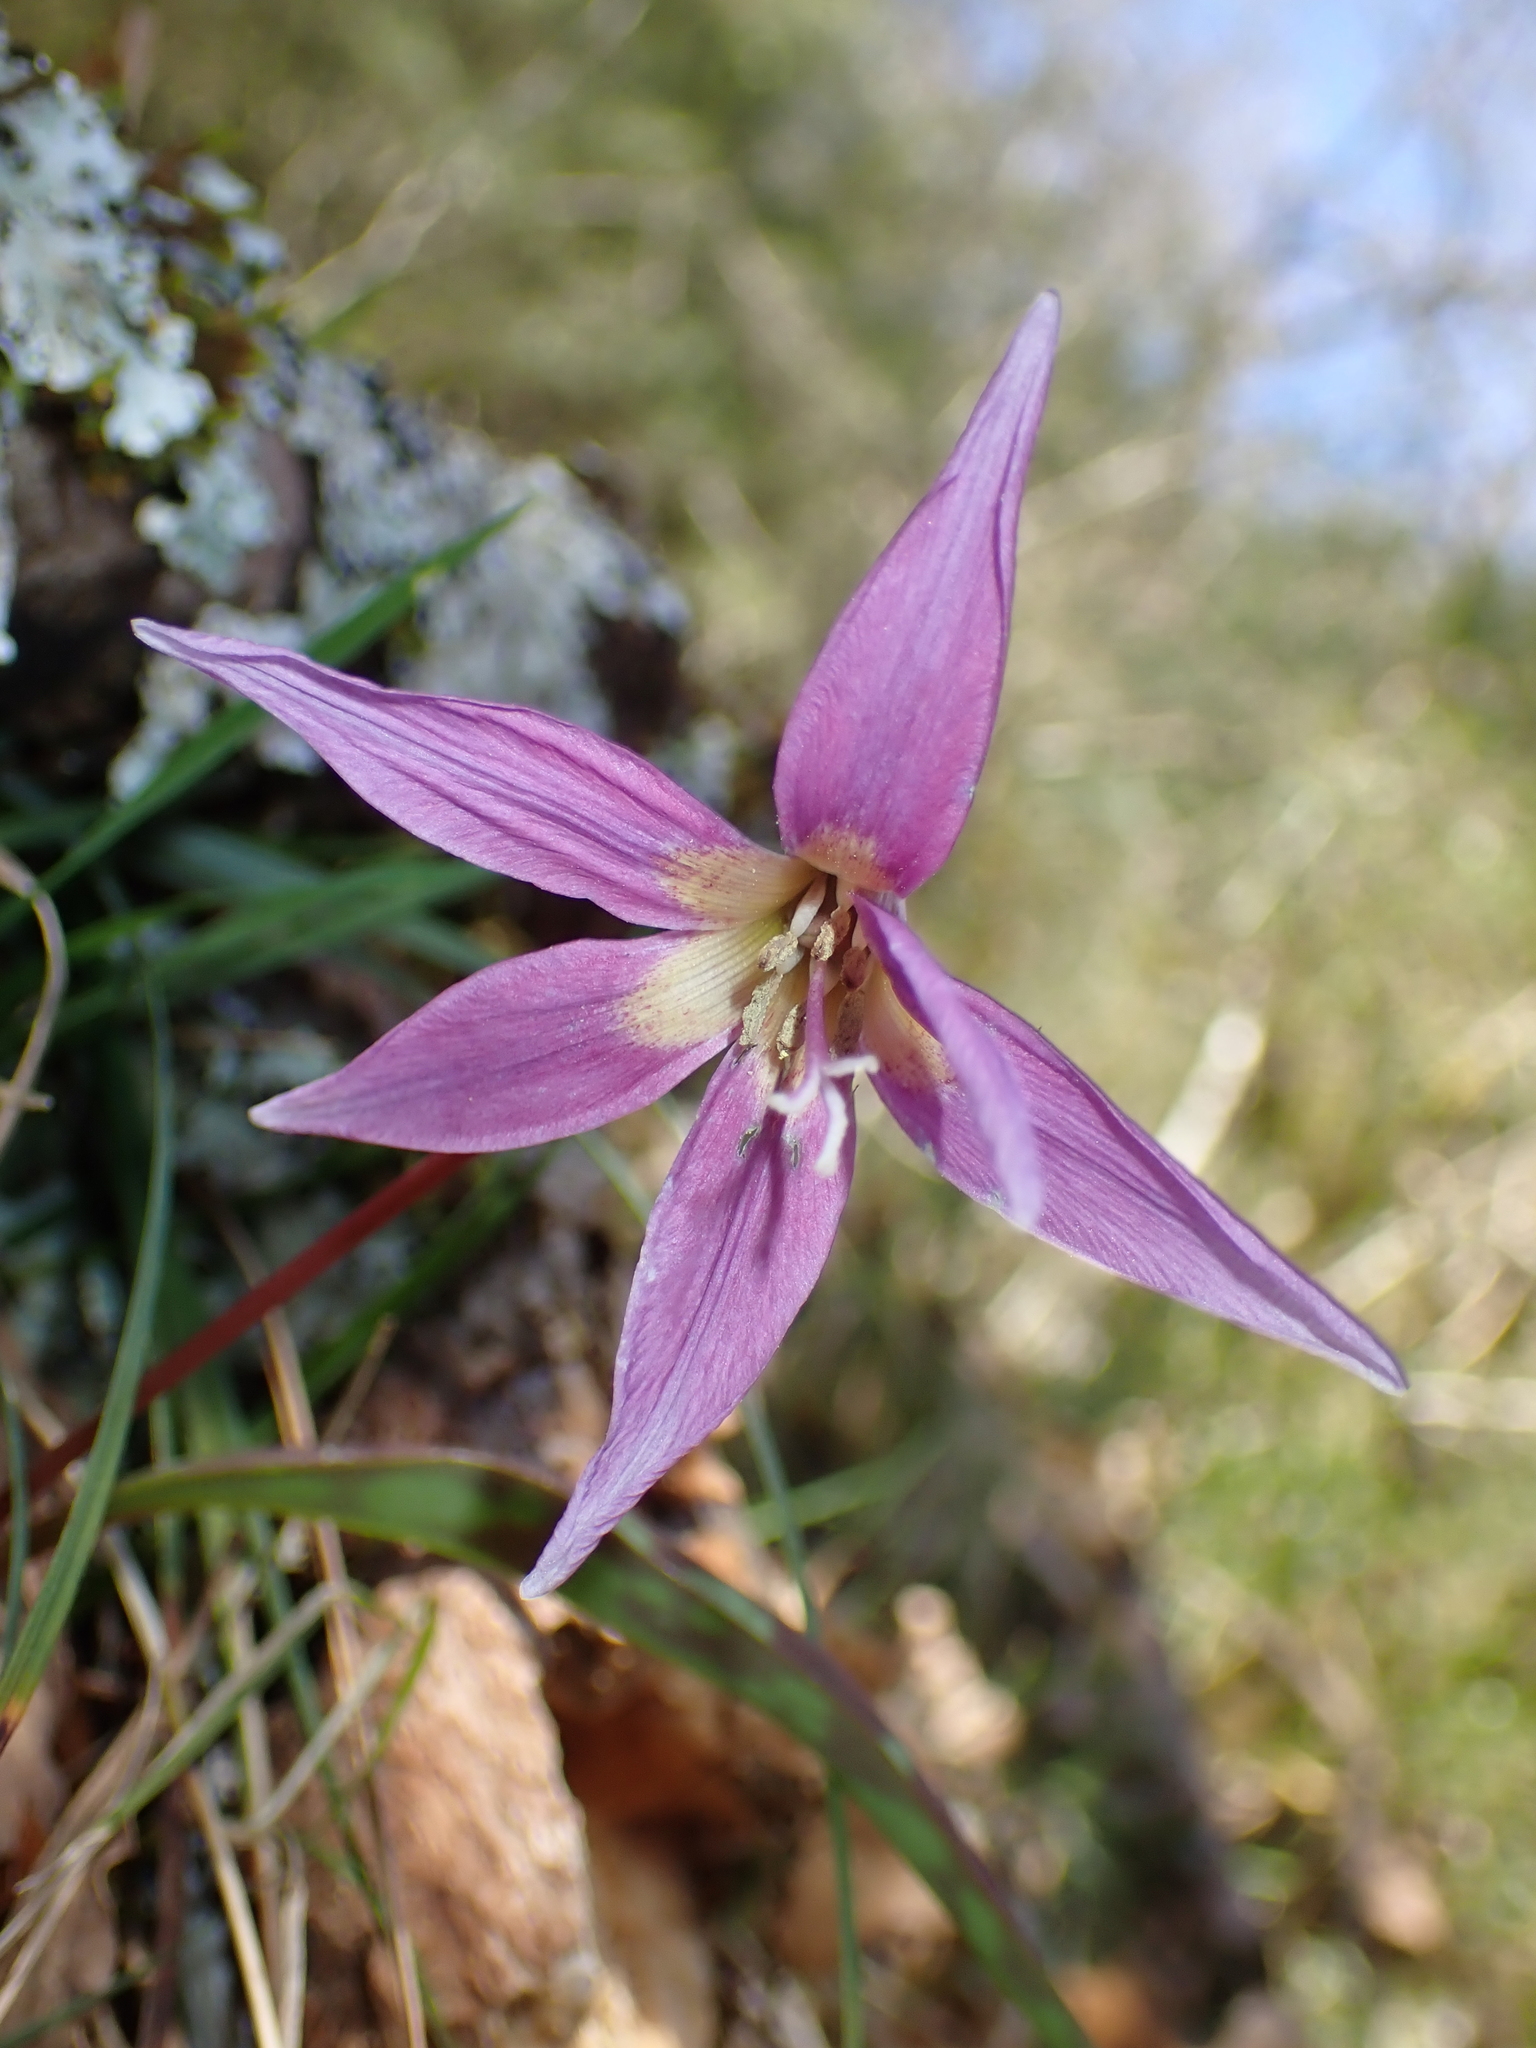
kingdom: Plantae
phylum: Tracheophyta
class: Liliopsida
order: Liliales
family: Liliaceae
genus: Erythronium
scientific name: Erythronium dens-canis
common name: Dog's-tooth-violet
